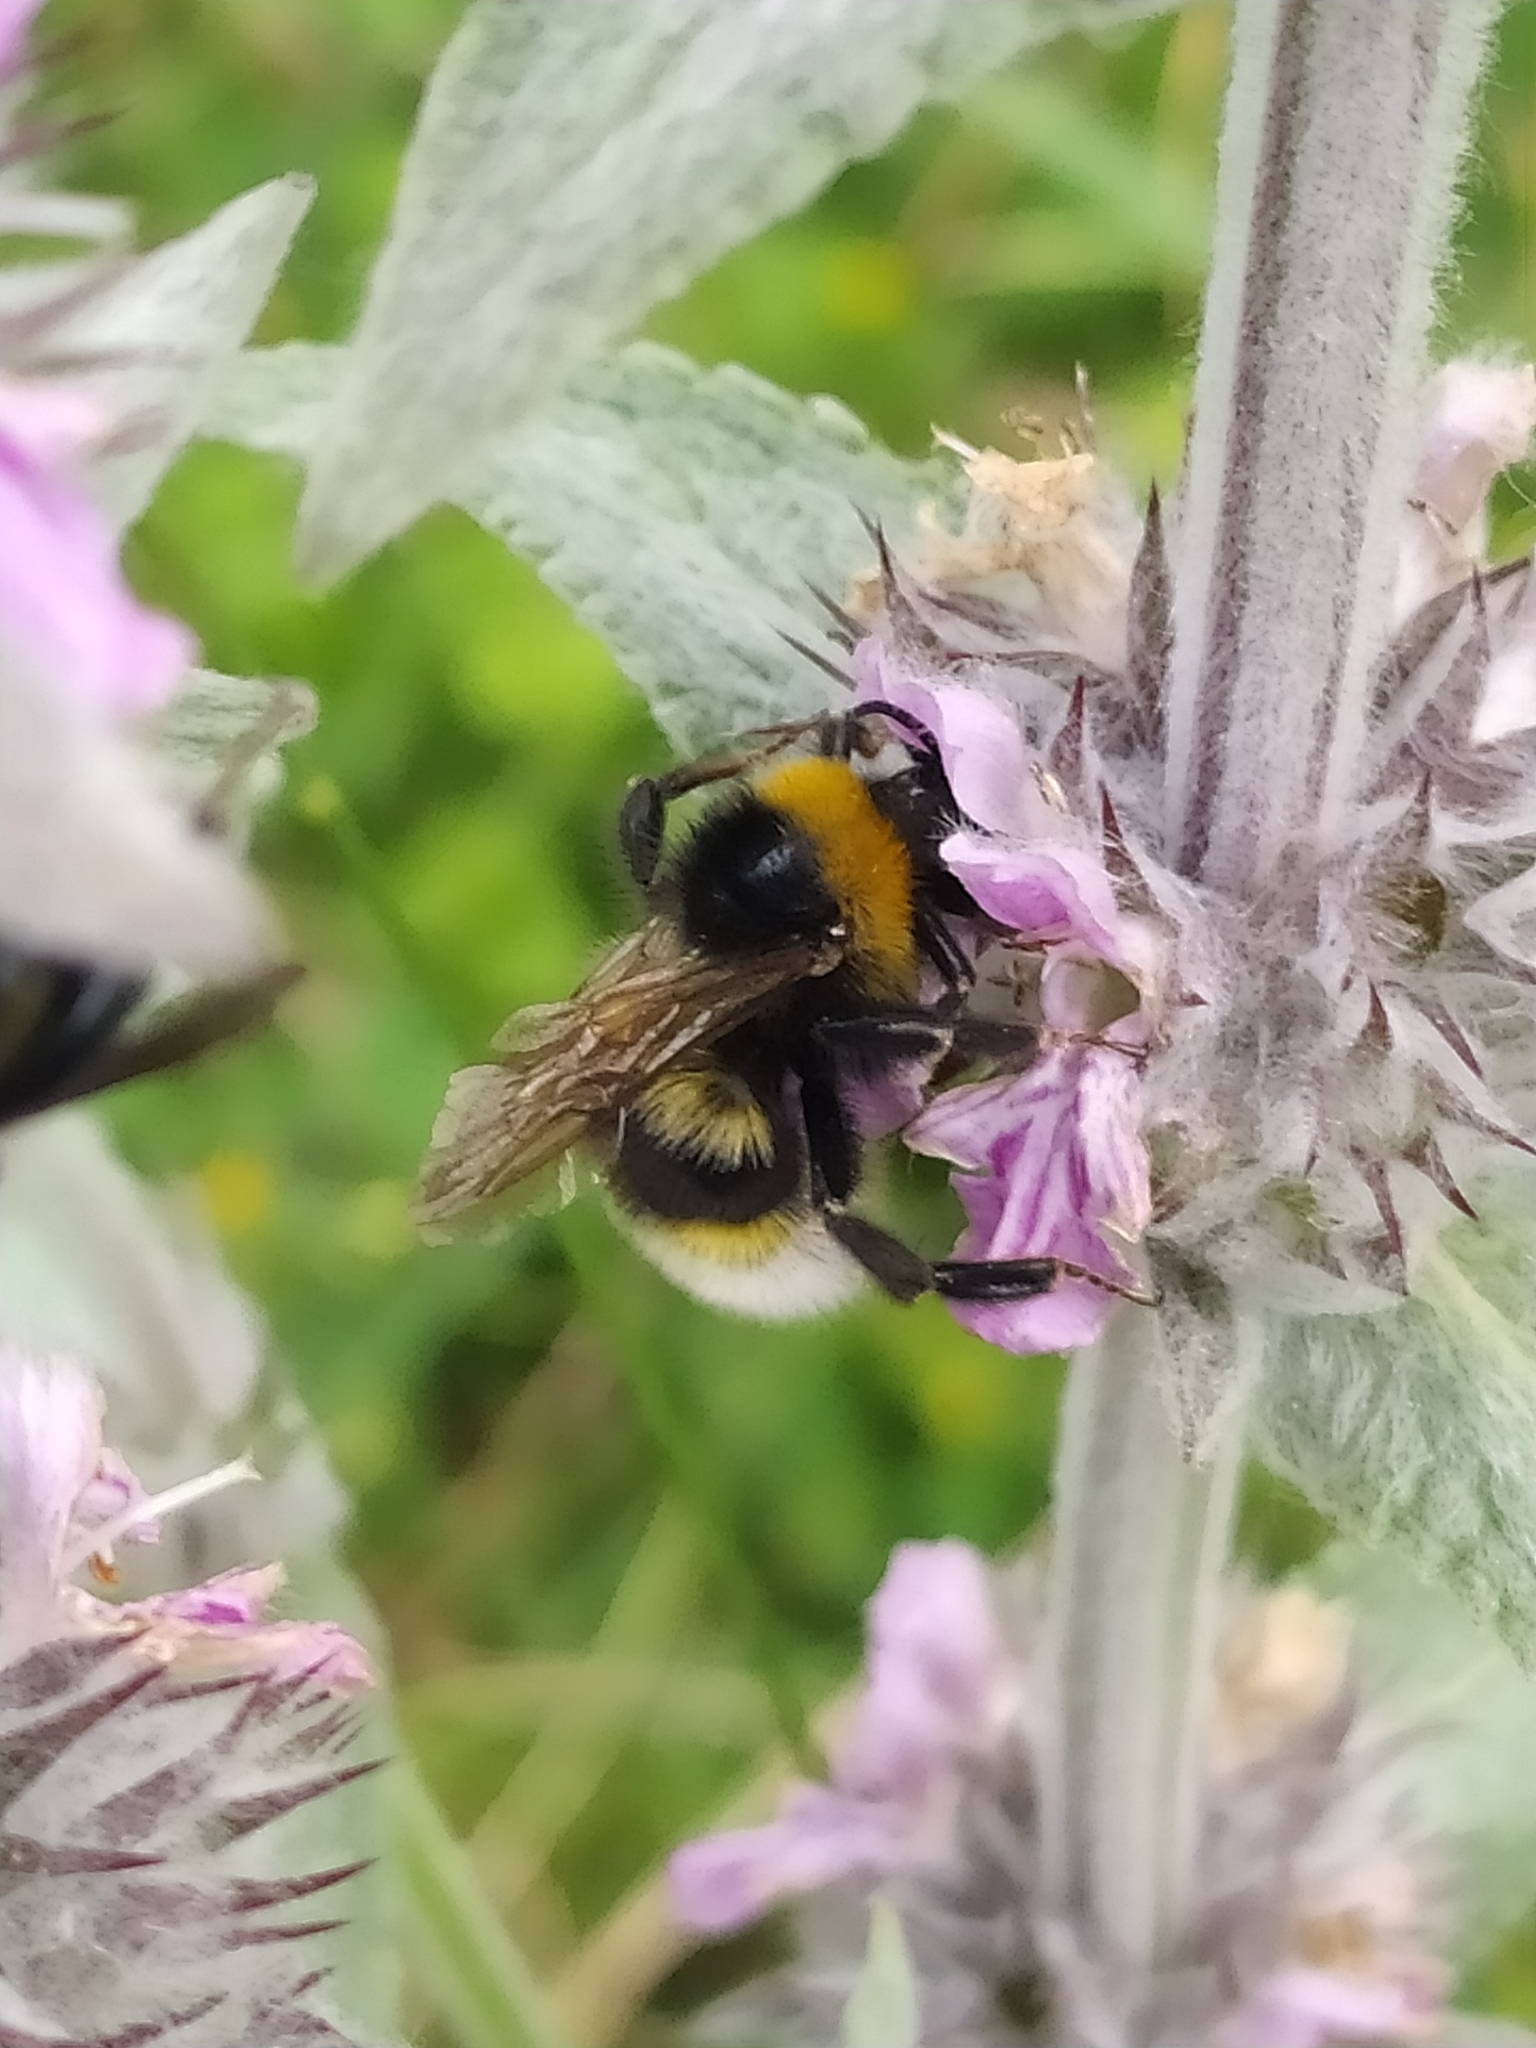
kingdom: Animalia
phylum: Arthropoda
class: Insecta
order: Hymenoptera
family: Apidae
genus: Bombus
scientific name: Bombus vestalis
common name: Vestal cuckoo bee
